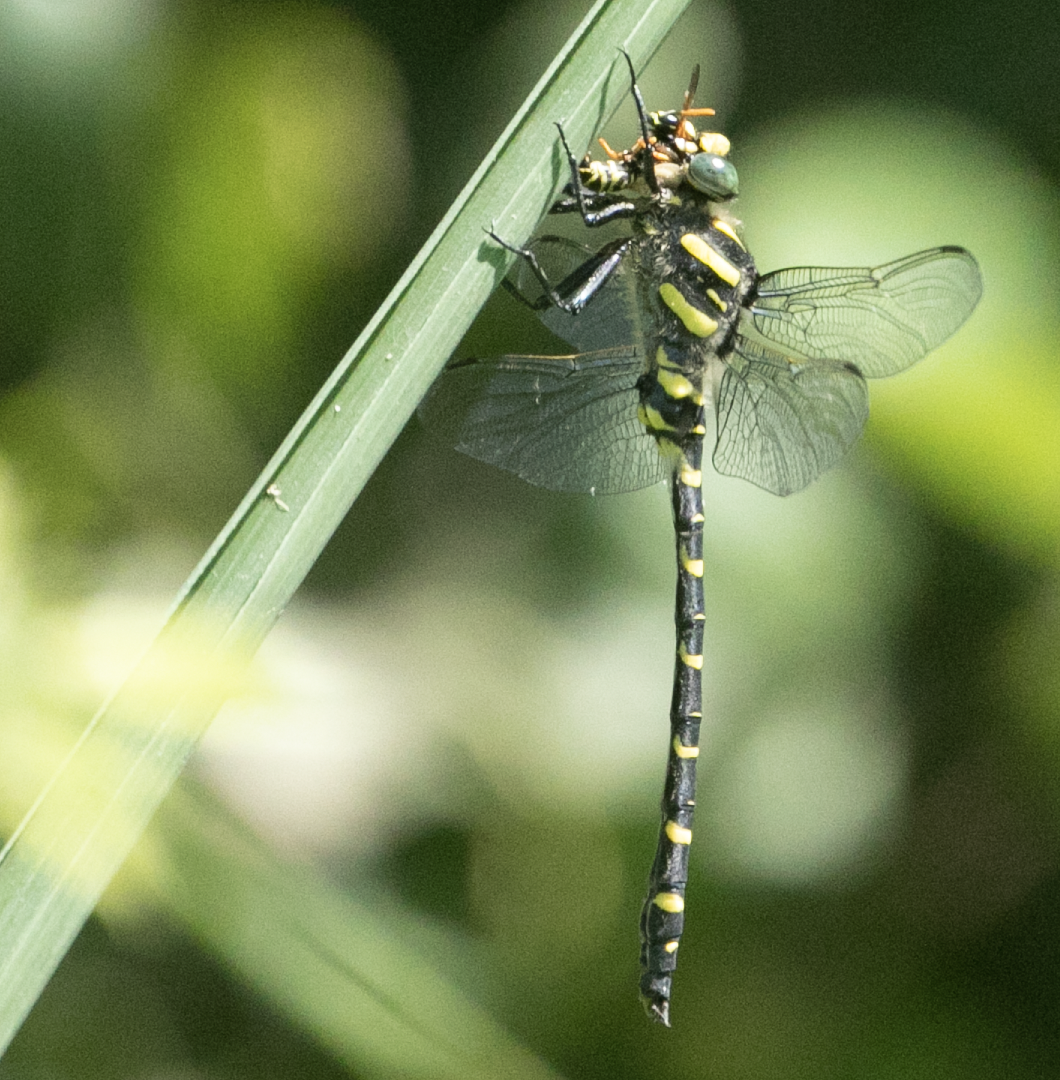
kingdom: Animalia
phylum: Arthropoda
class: Insecta
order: Odonata
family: Cordulegastridae
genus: Cordulegaster
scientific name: Cordulegaster boltonii
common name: Golden-ringed dragonfly
